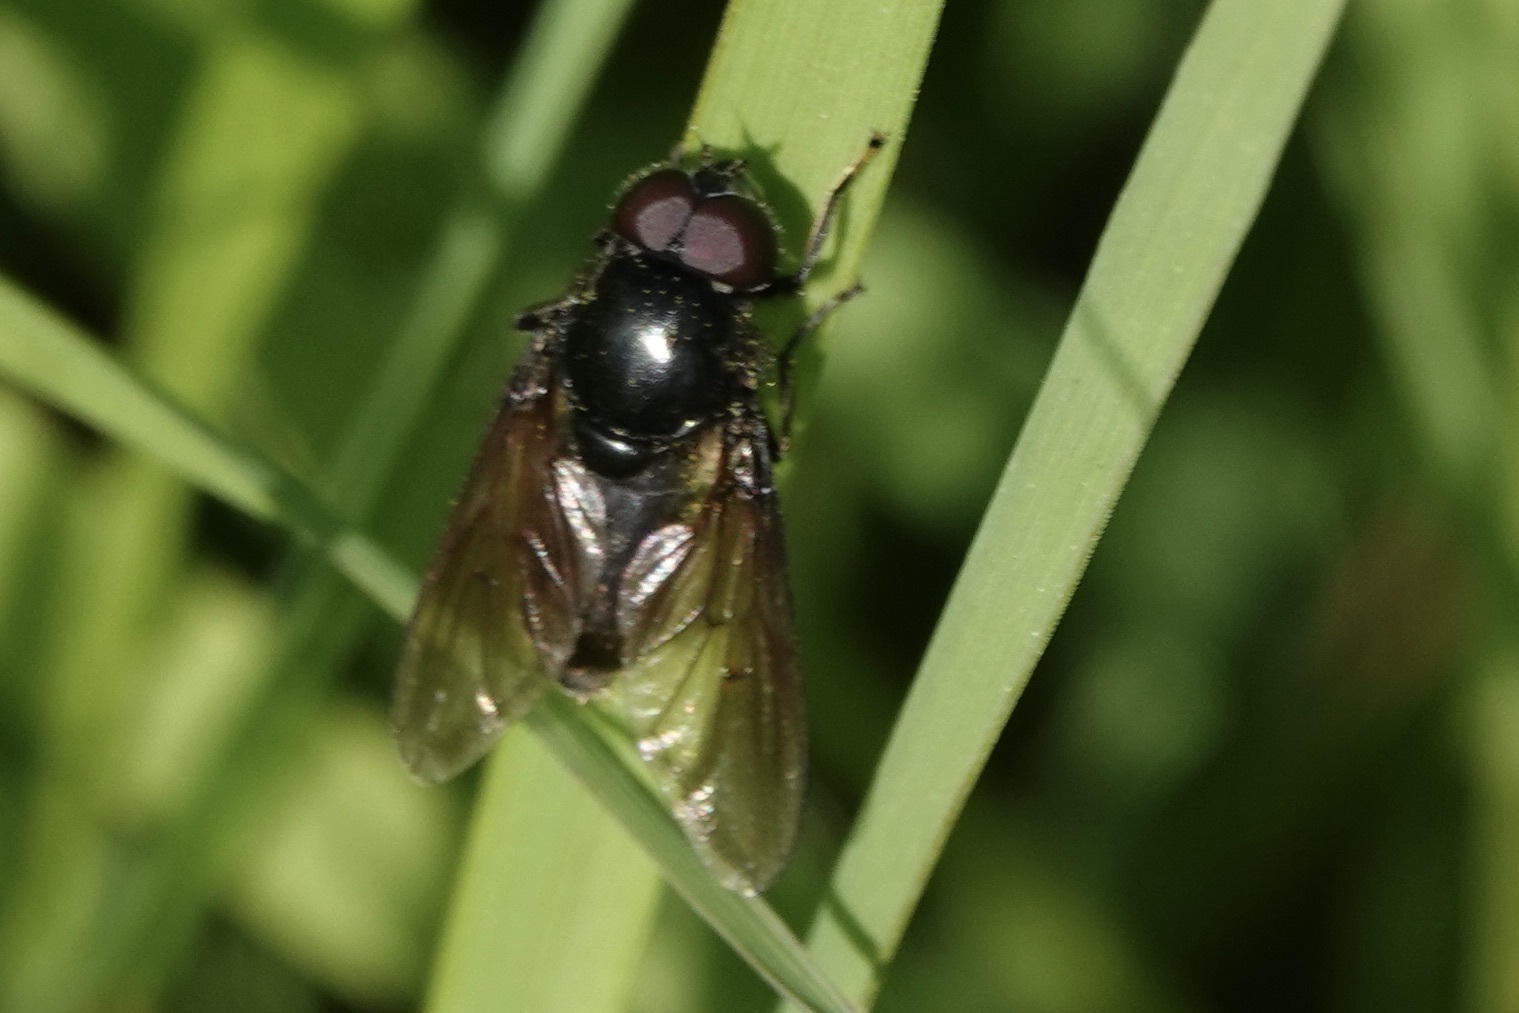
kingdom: Animalia
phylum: Arthropoda
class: Insecta
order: Diptera
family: Syrphidae
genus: Cheilosia
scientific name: Cheilosia
